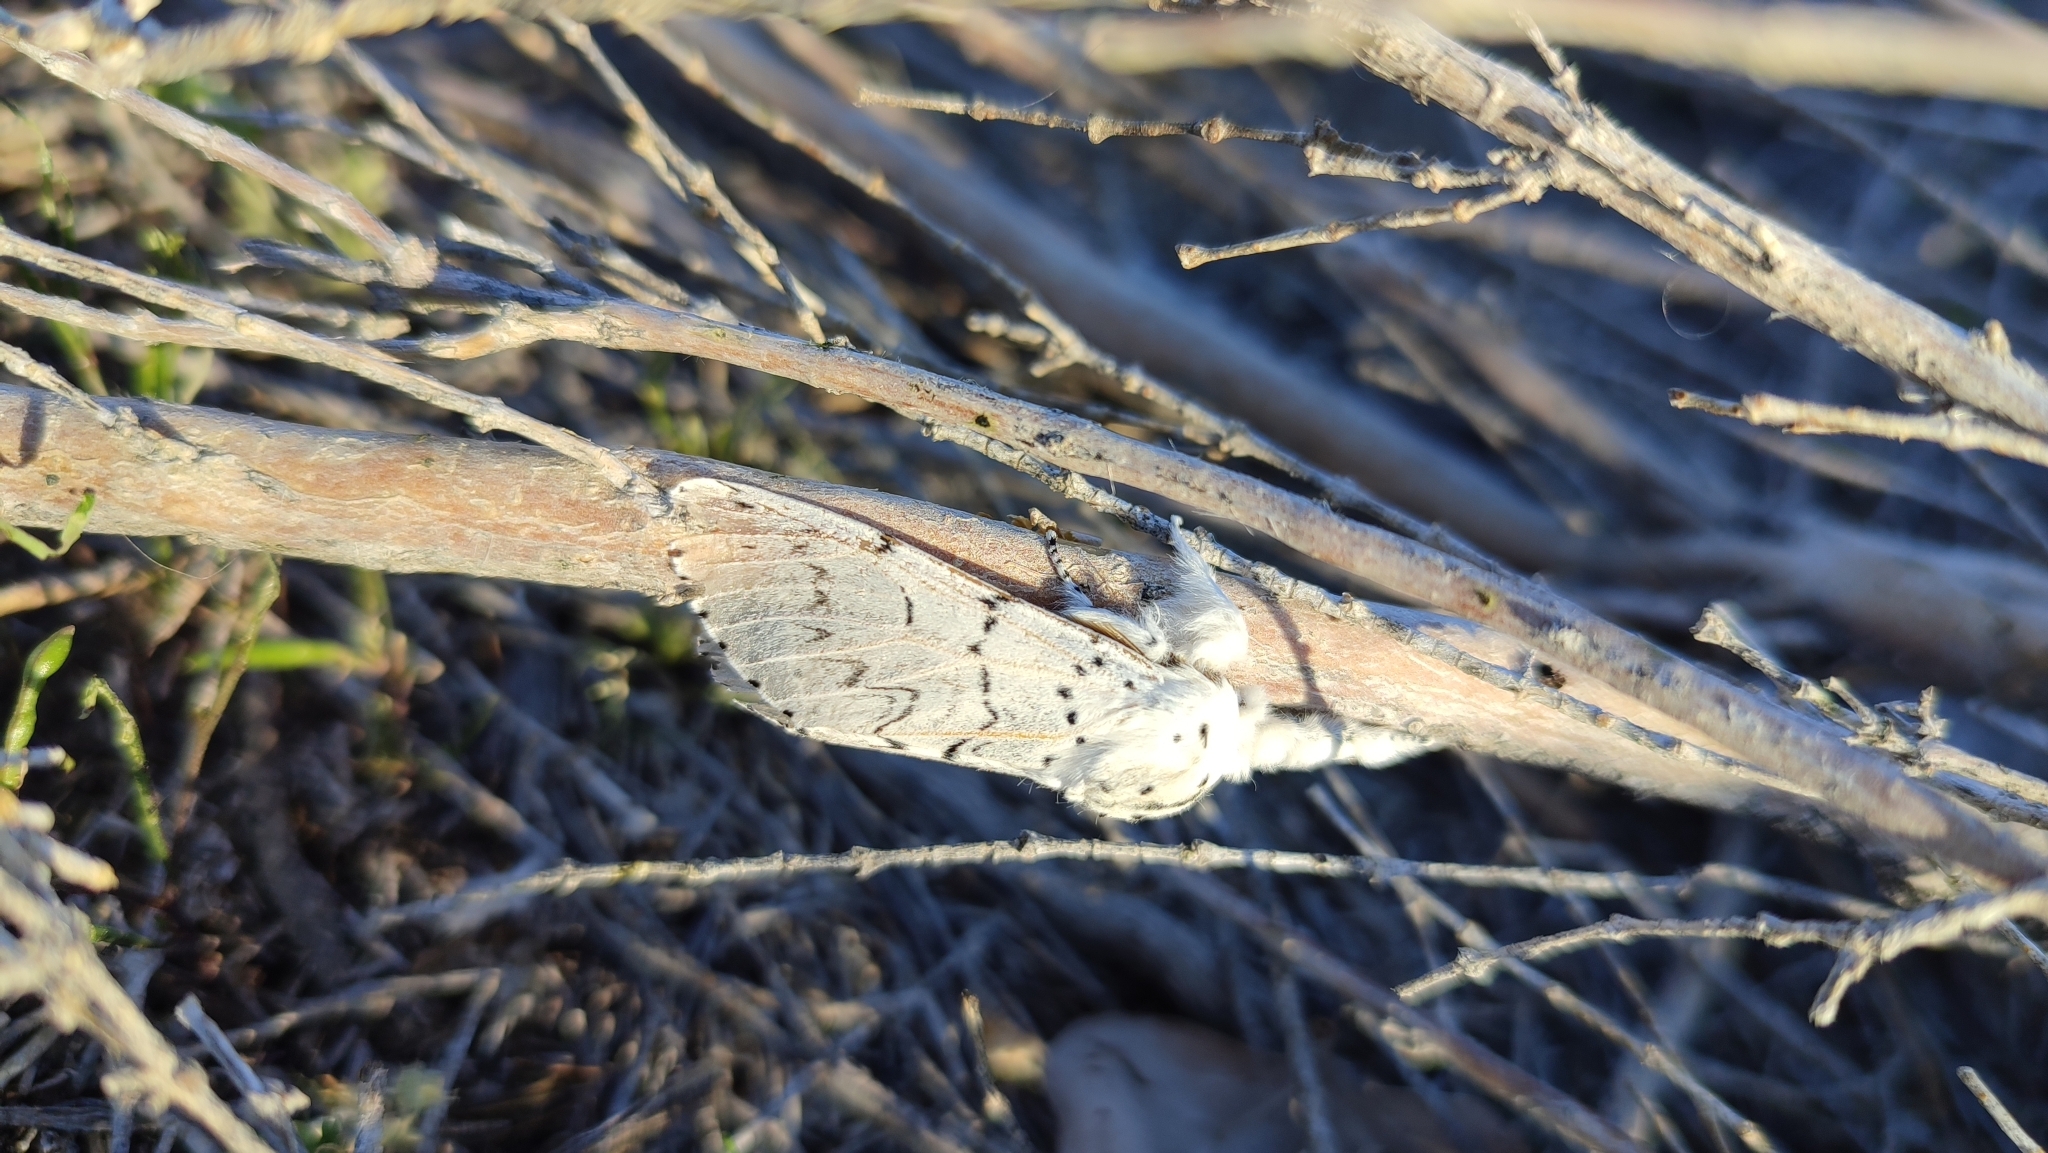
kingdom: Animalia
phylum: Arthropoda
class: Insecta
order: Lepidoptera
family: Notodontidae
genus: Cerura
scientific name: Cerura przewalskii
